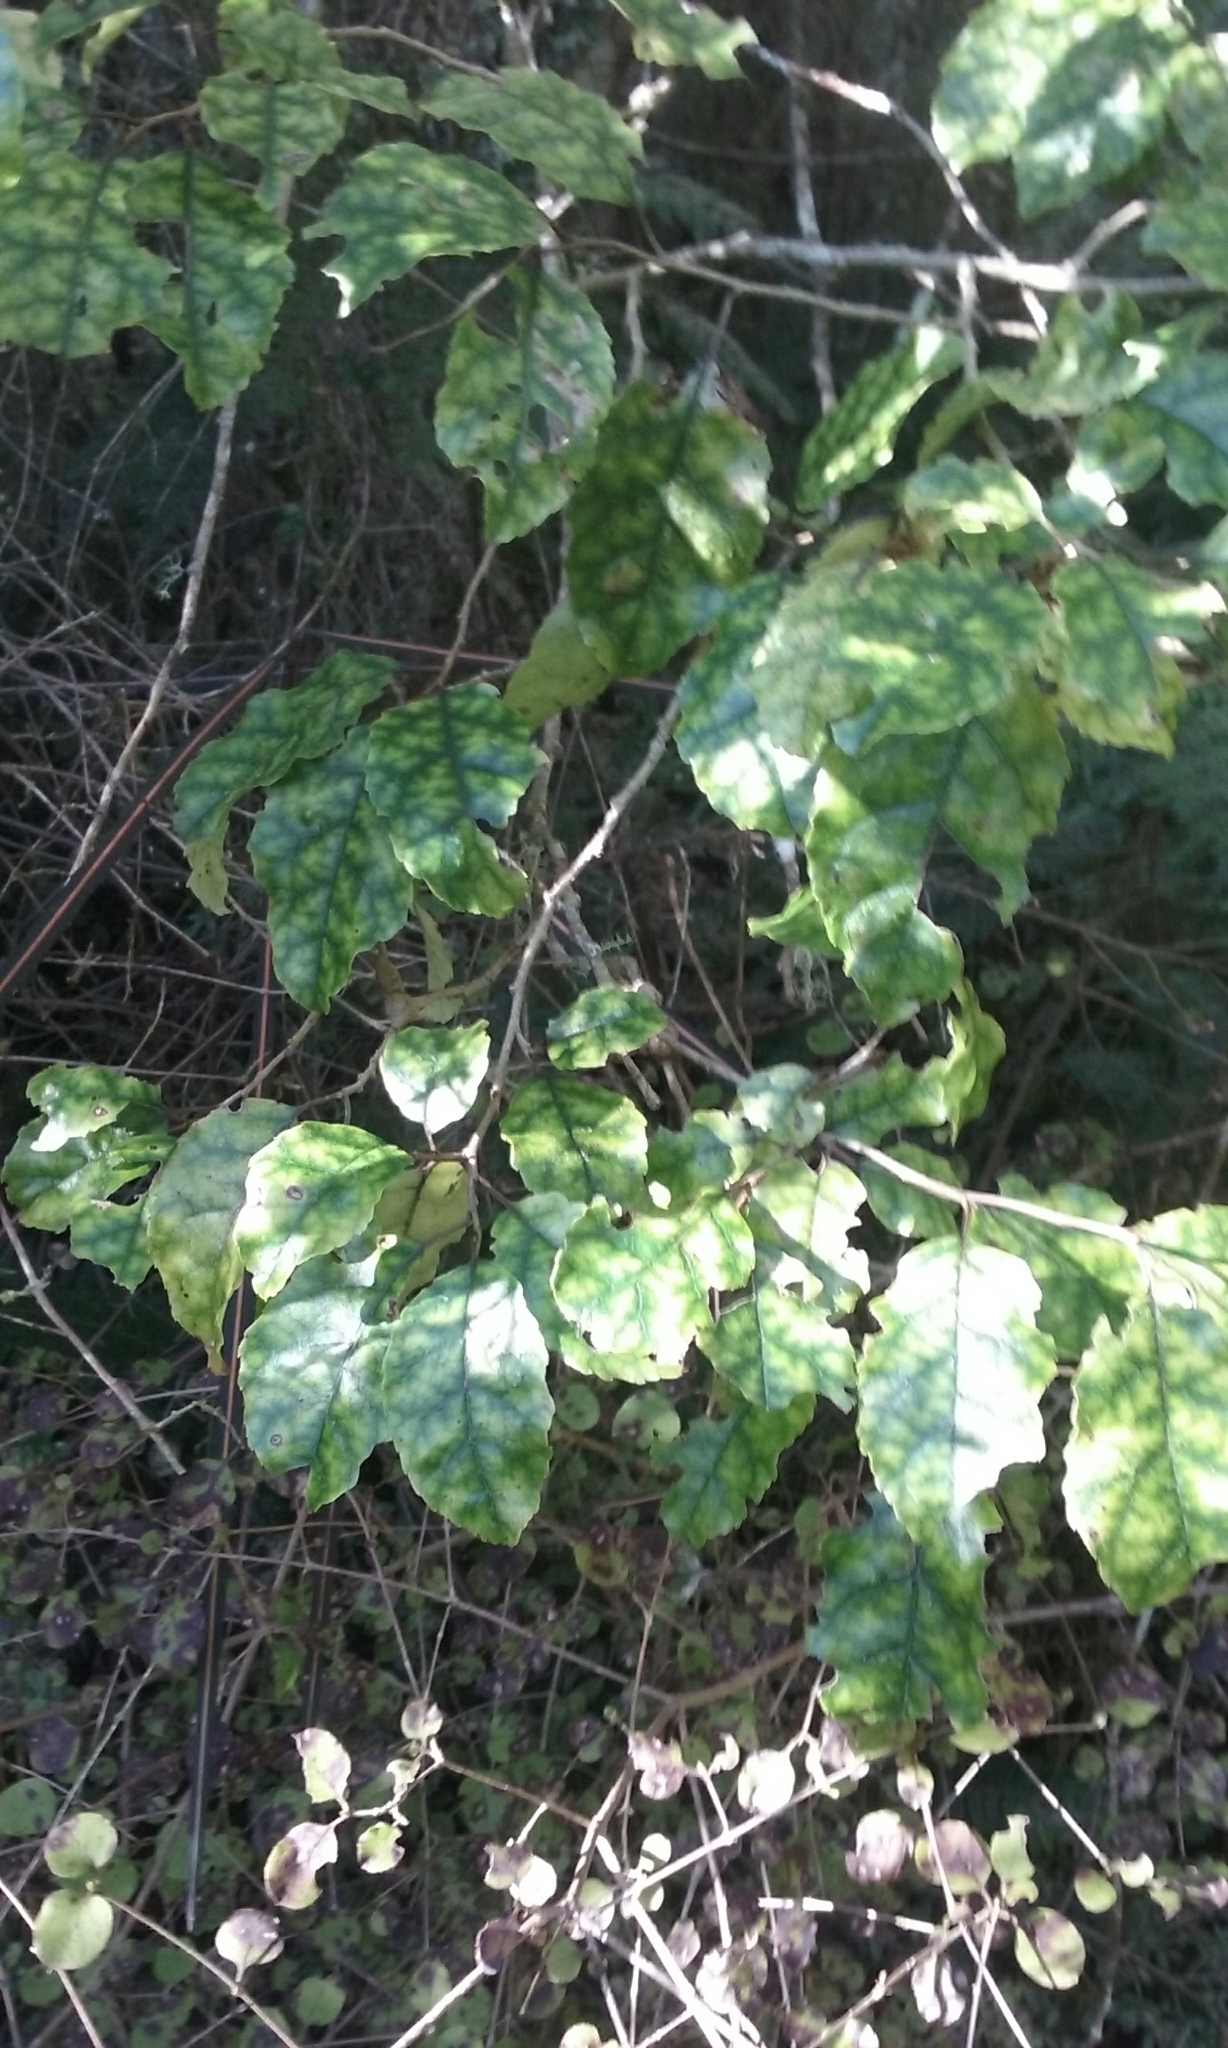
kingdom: Plantae
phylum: Tracheophyta
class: Magnoliopsida
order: Asterales
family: Rousseaceae
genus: Carpodetus
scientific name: Carpodetus serratus
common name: White mapau
